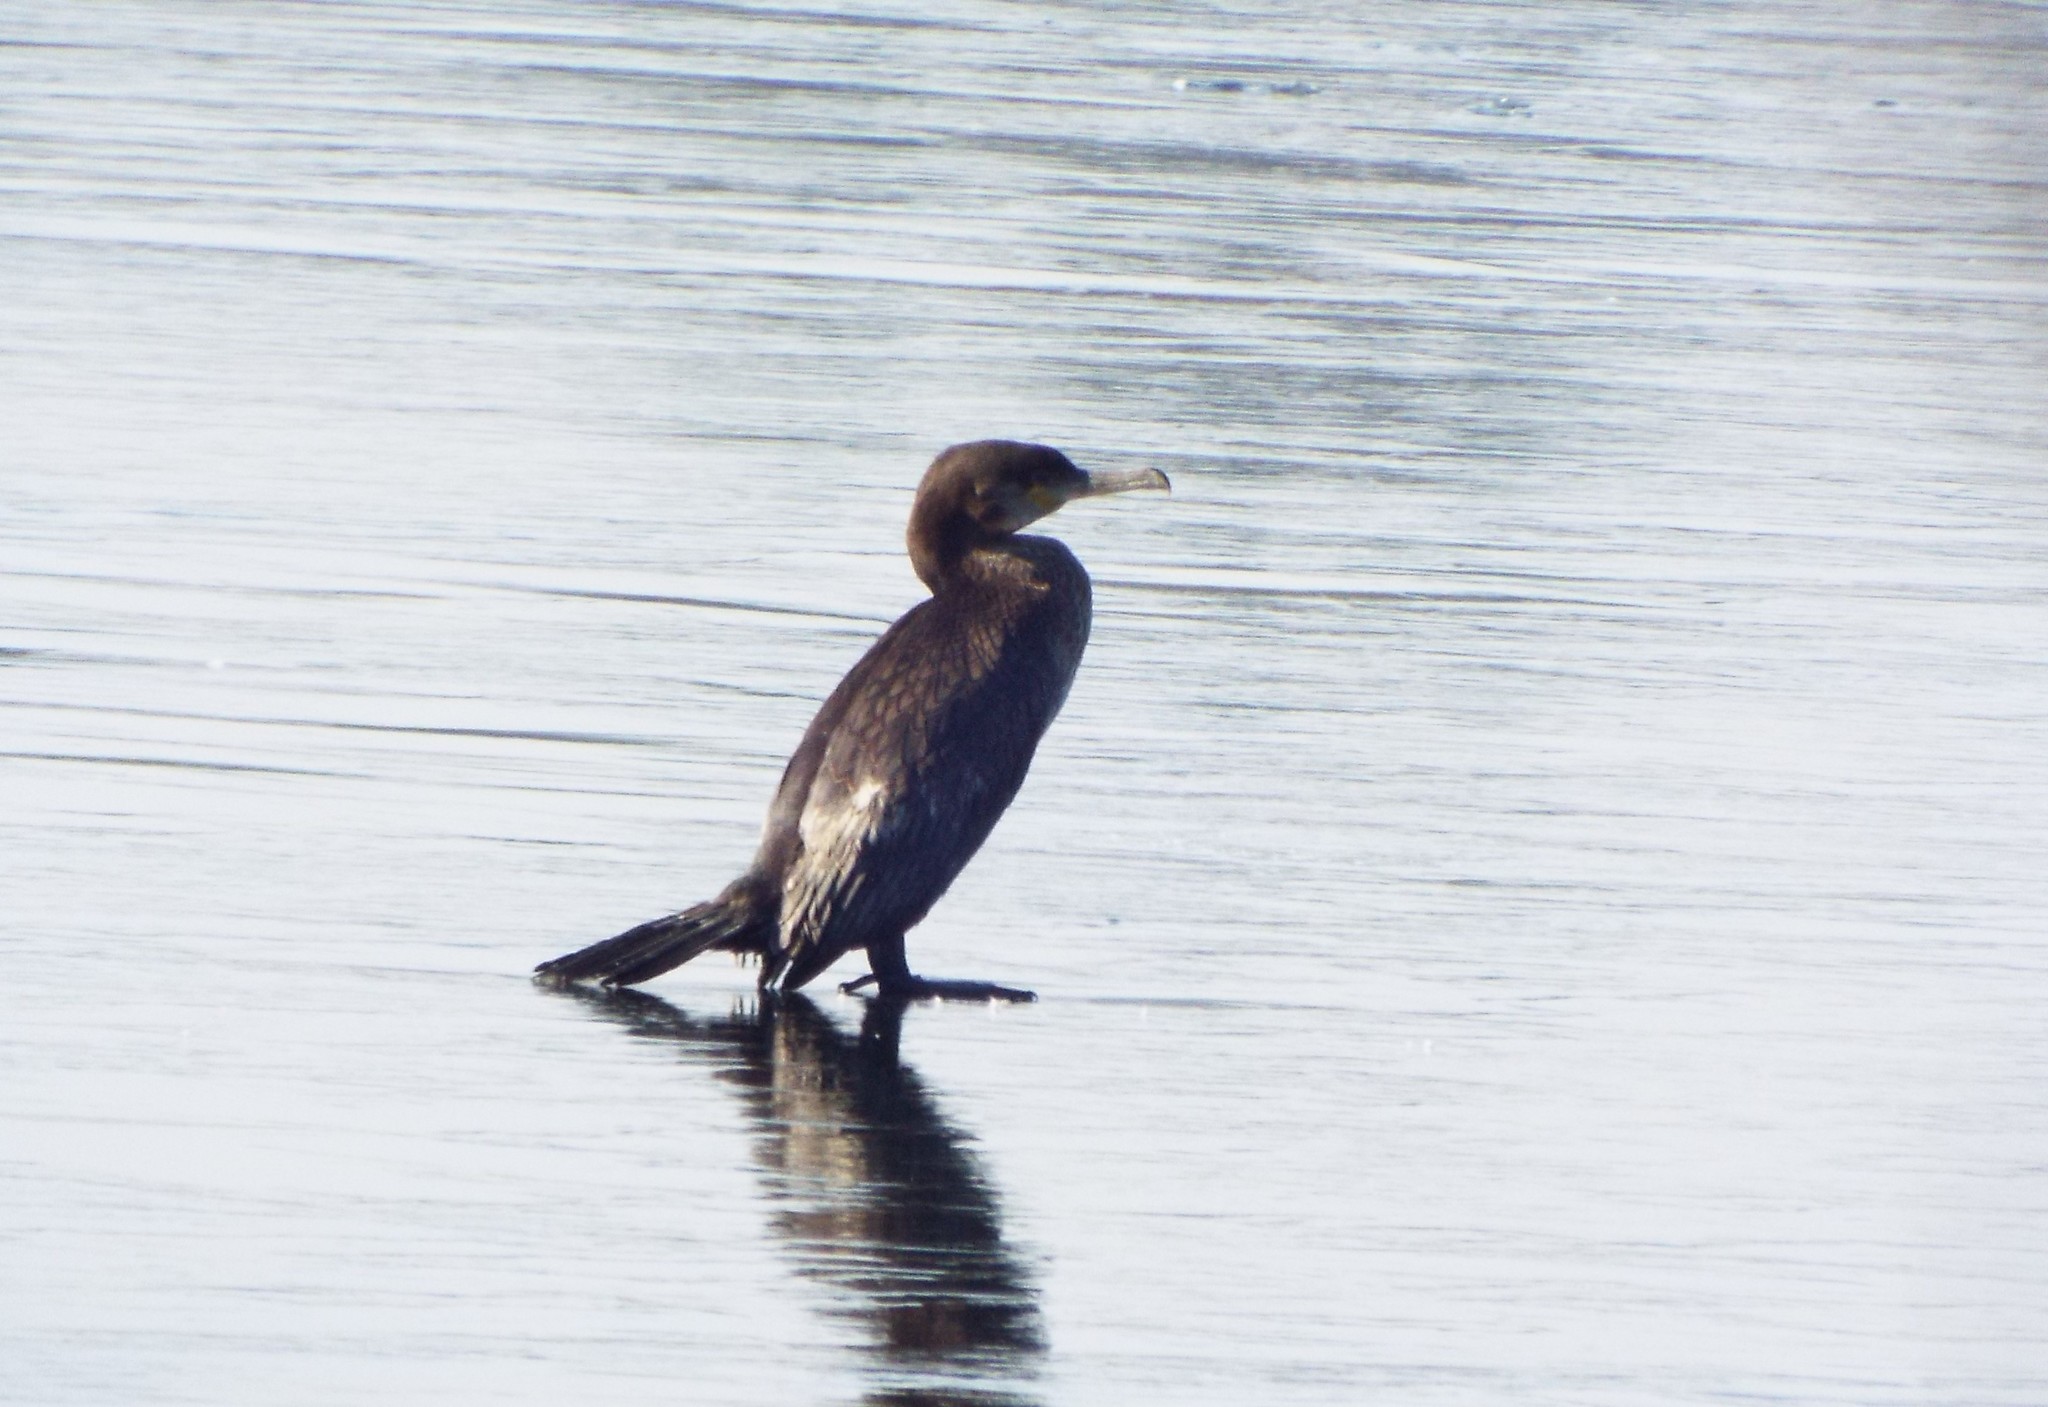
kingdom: Animalia
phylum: Chordata
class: Aves
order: Suliformes
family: Phalacrocoracidae
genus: Phalacrocorax
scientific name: Phalacrocorax carbo
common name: Great cormorant
